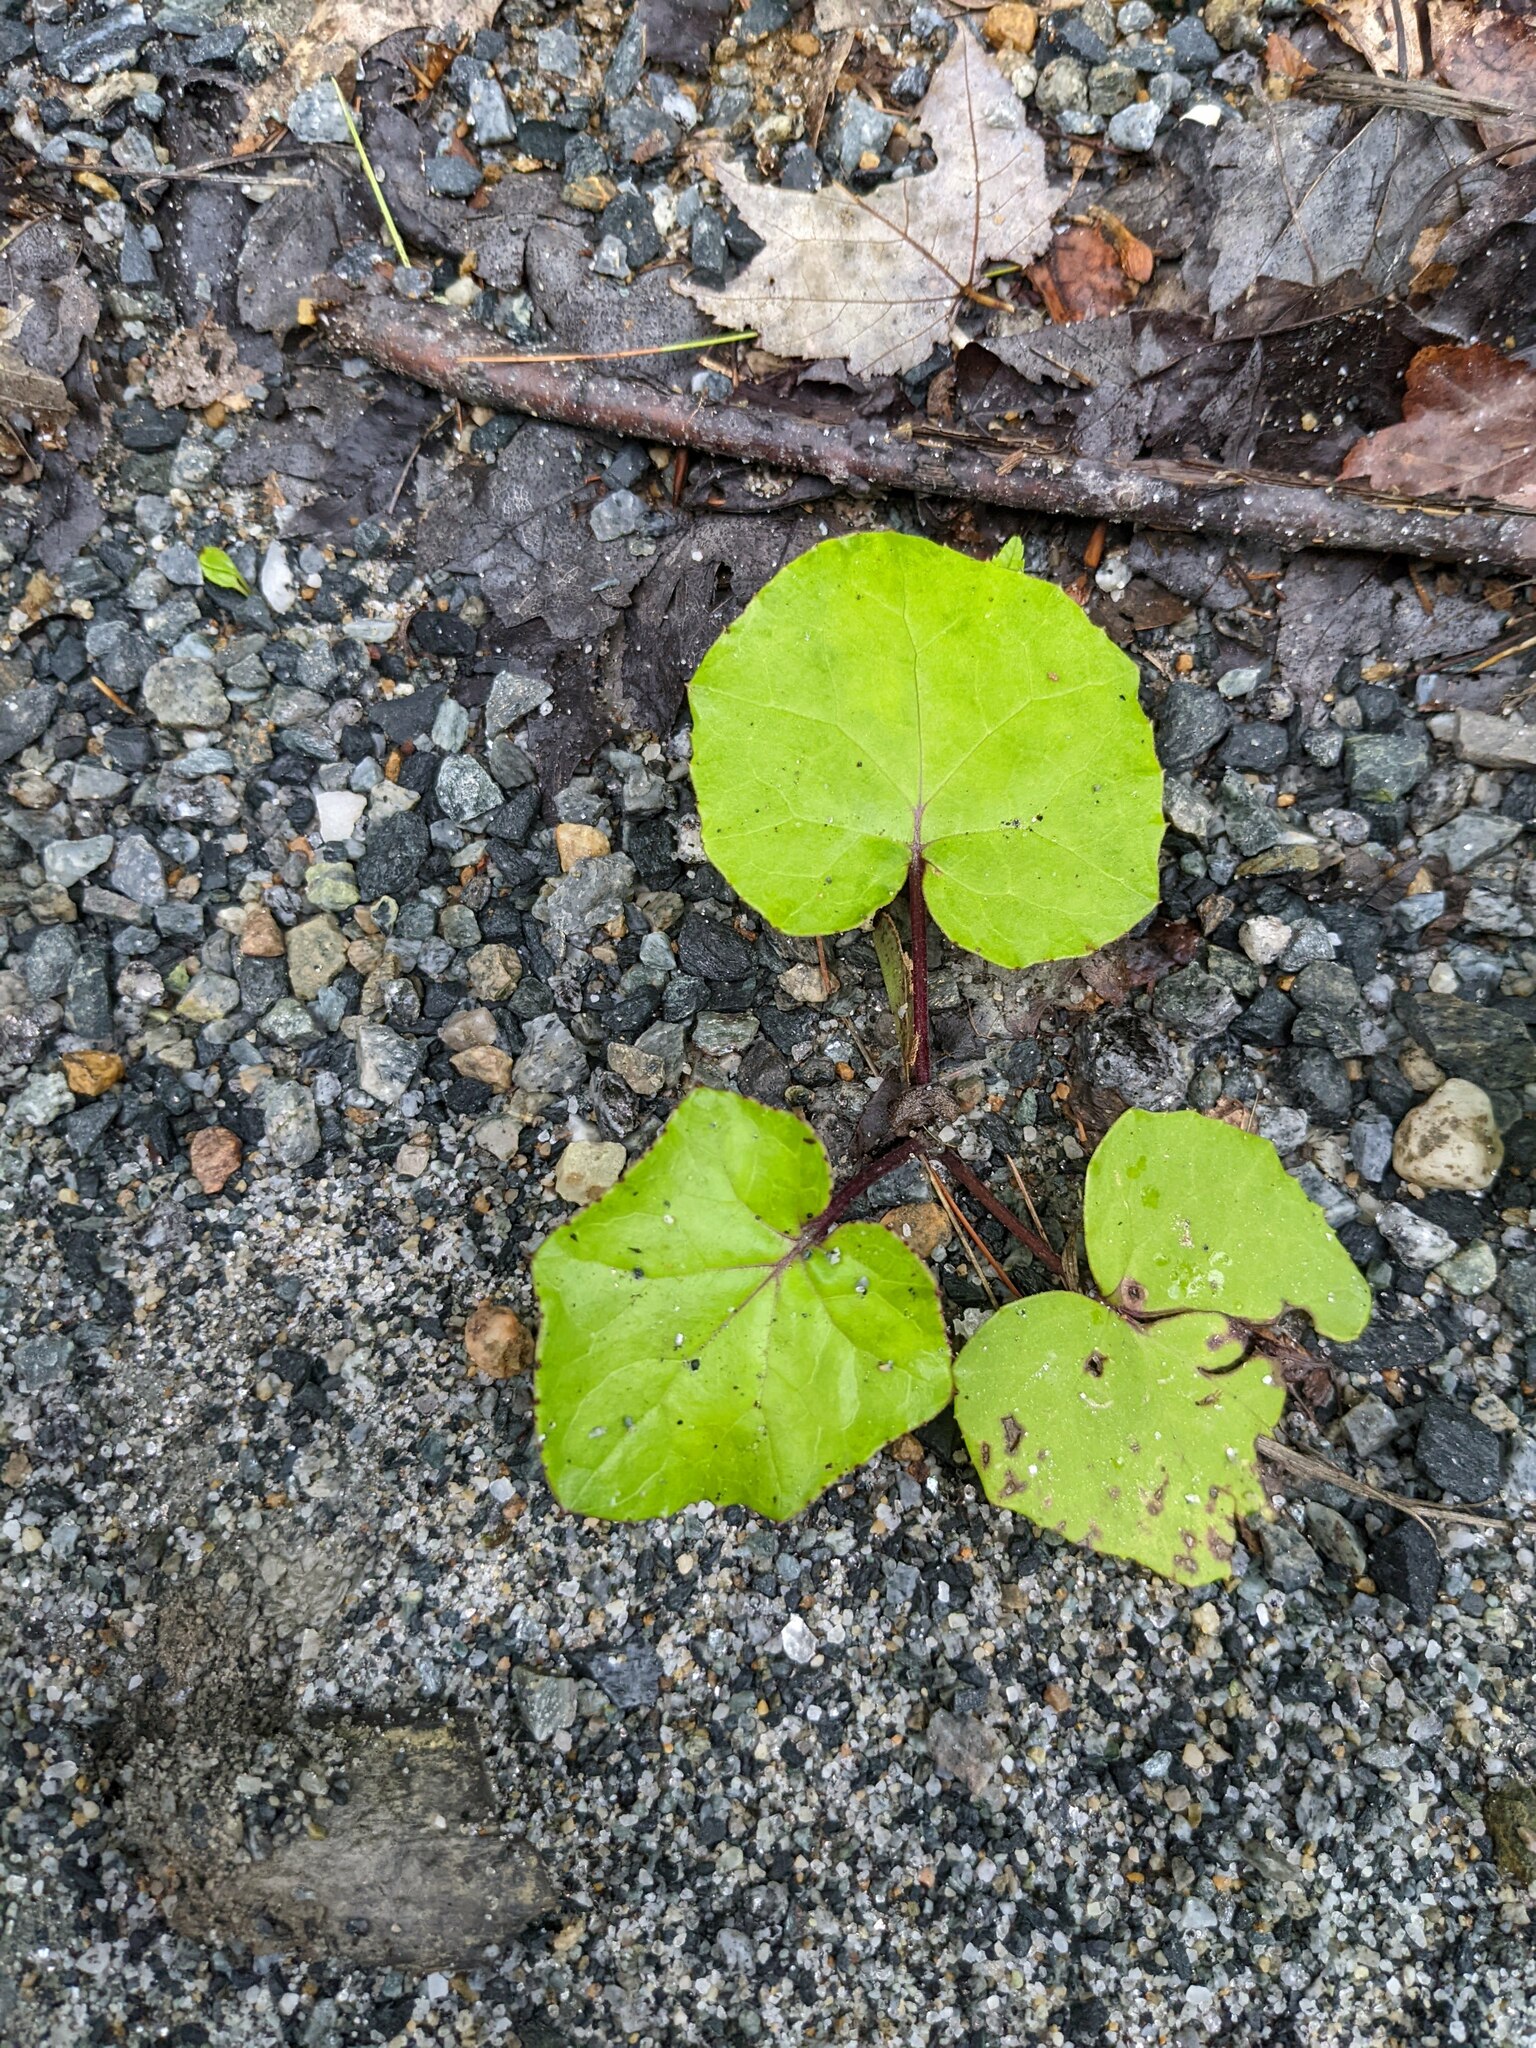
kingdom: Plantae
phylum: Tracheophyta
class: Magnoliopsida
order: Asterales
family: Asteraceae
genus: Tussilago
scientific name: Tussilago farfara
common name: Coltsfoot
